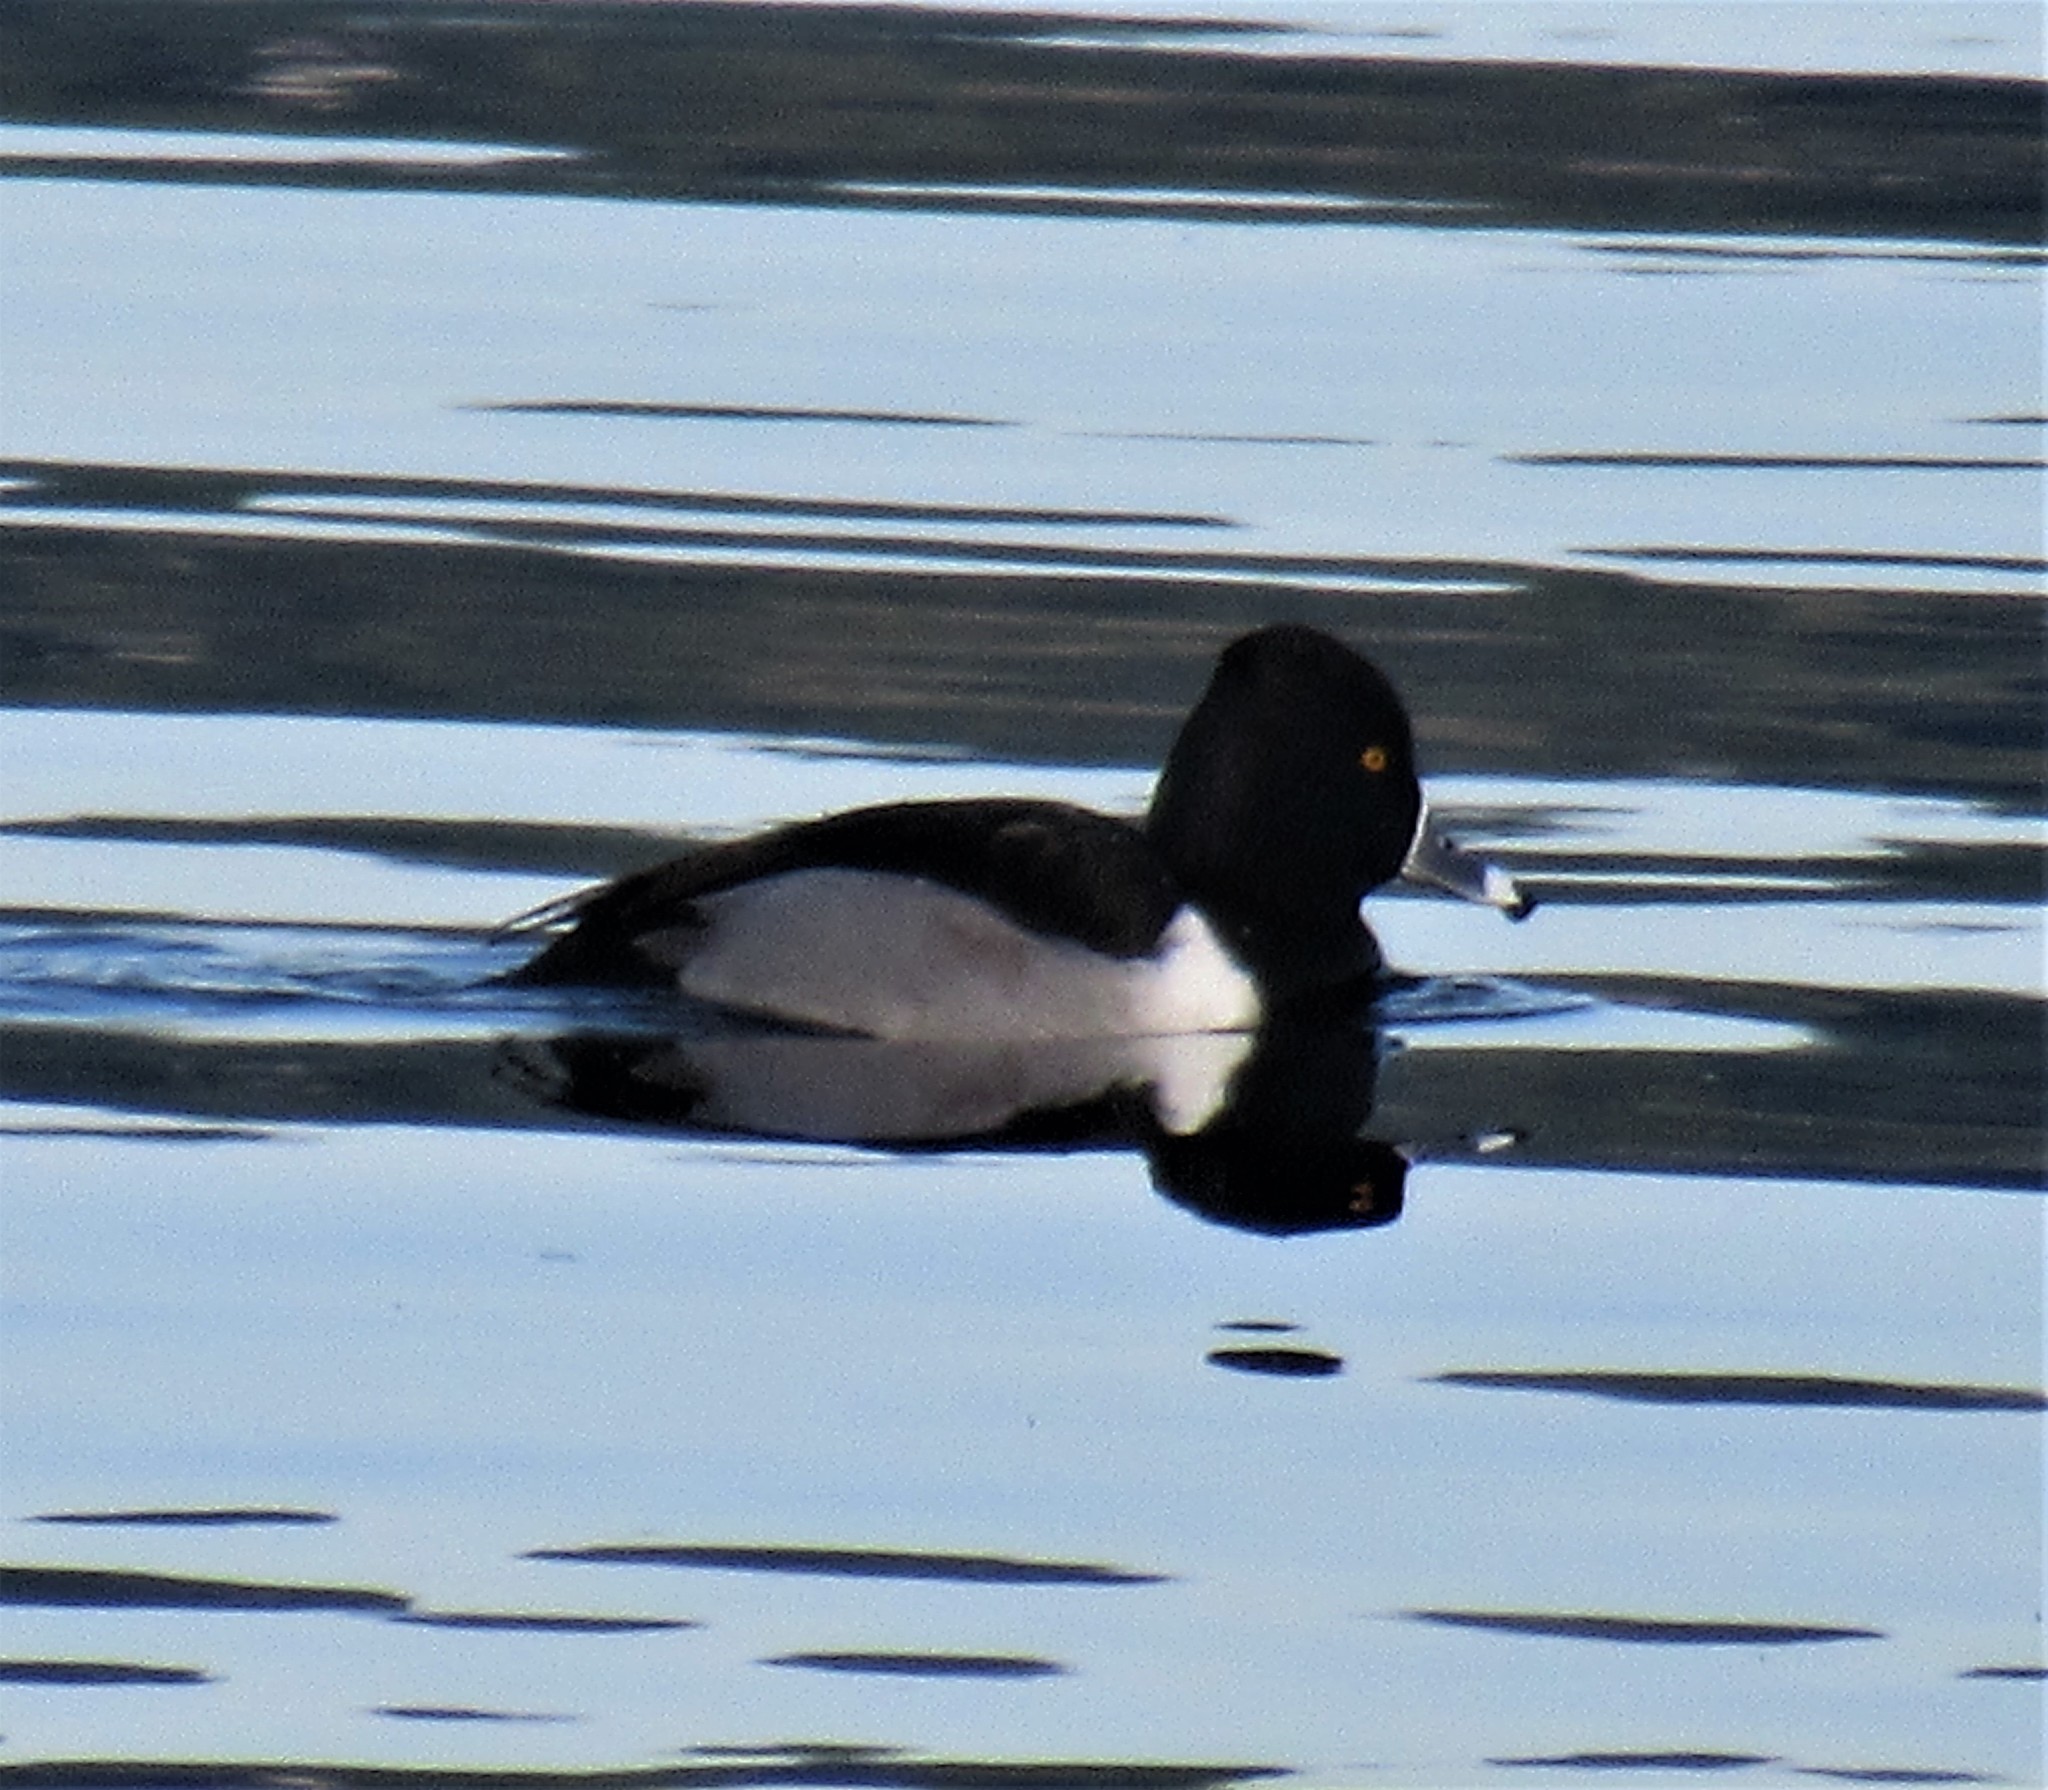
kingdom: Animalia
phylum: Chordata
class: Aves
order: Anseriformes
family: Anatidae
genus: Aythya
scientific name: Aythya collaris
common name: Ring-necked duck
